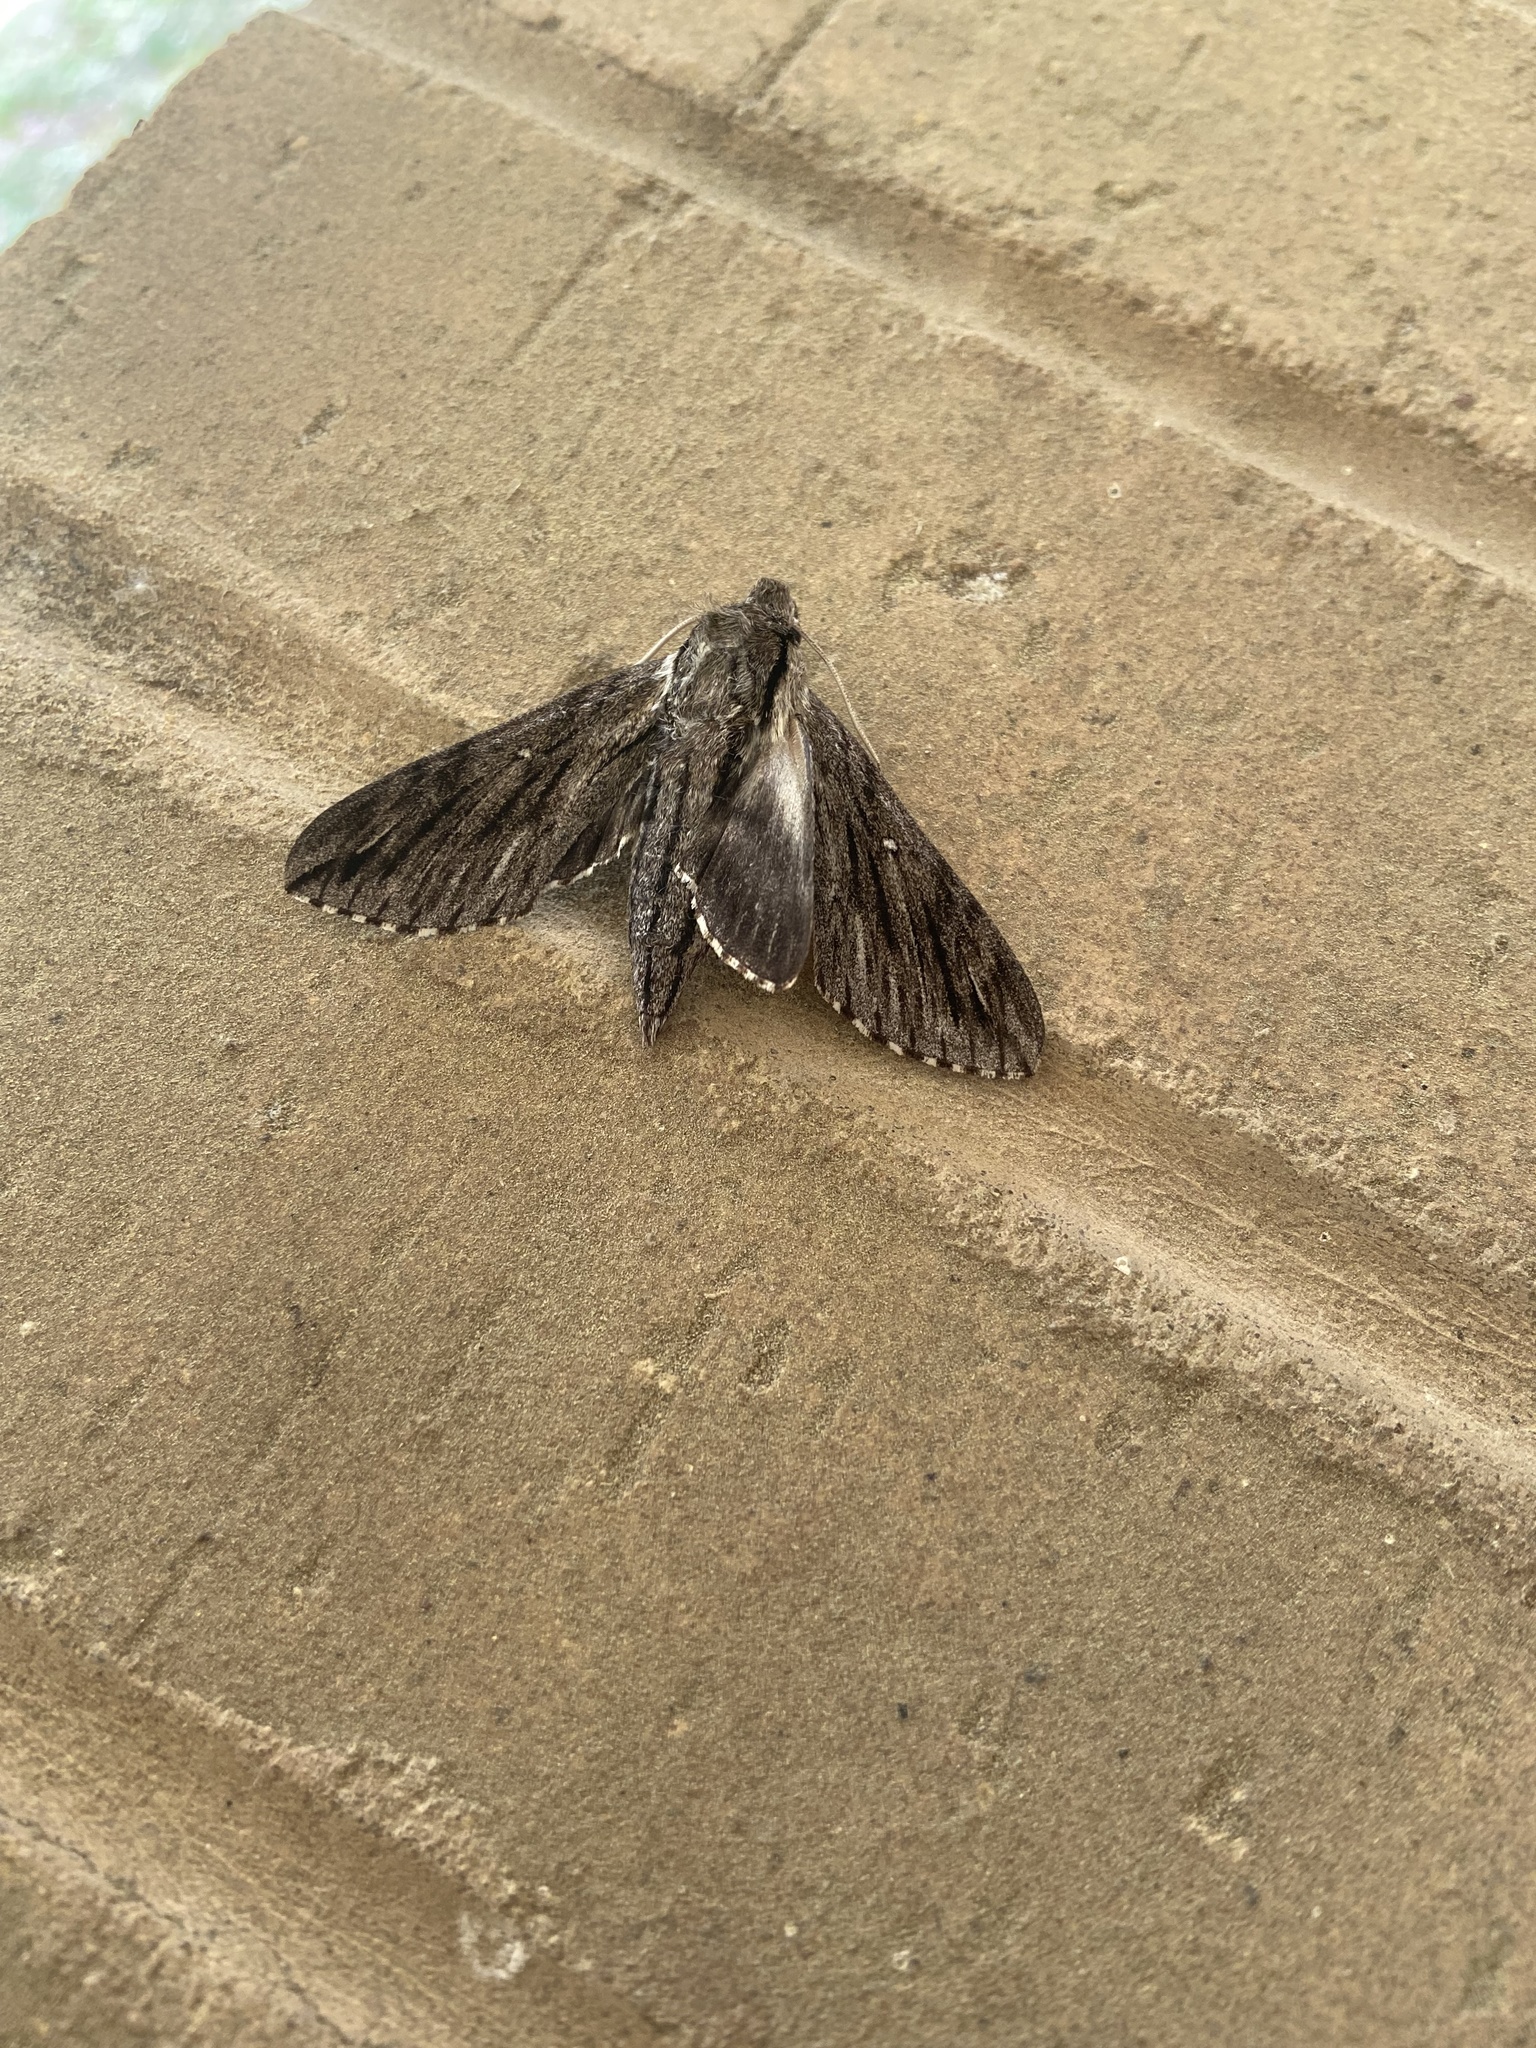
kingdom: Animalia
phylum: Arthropoda
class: Insecta
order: Lepidoptera
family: Sphingidae
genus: Paratrea
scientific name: Paratrea plebeja
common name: Plebian sphinx
